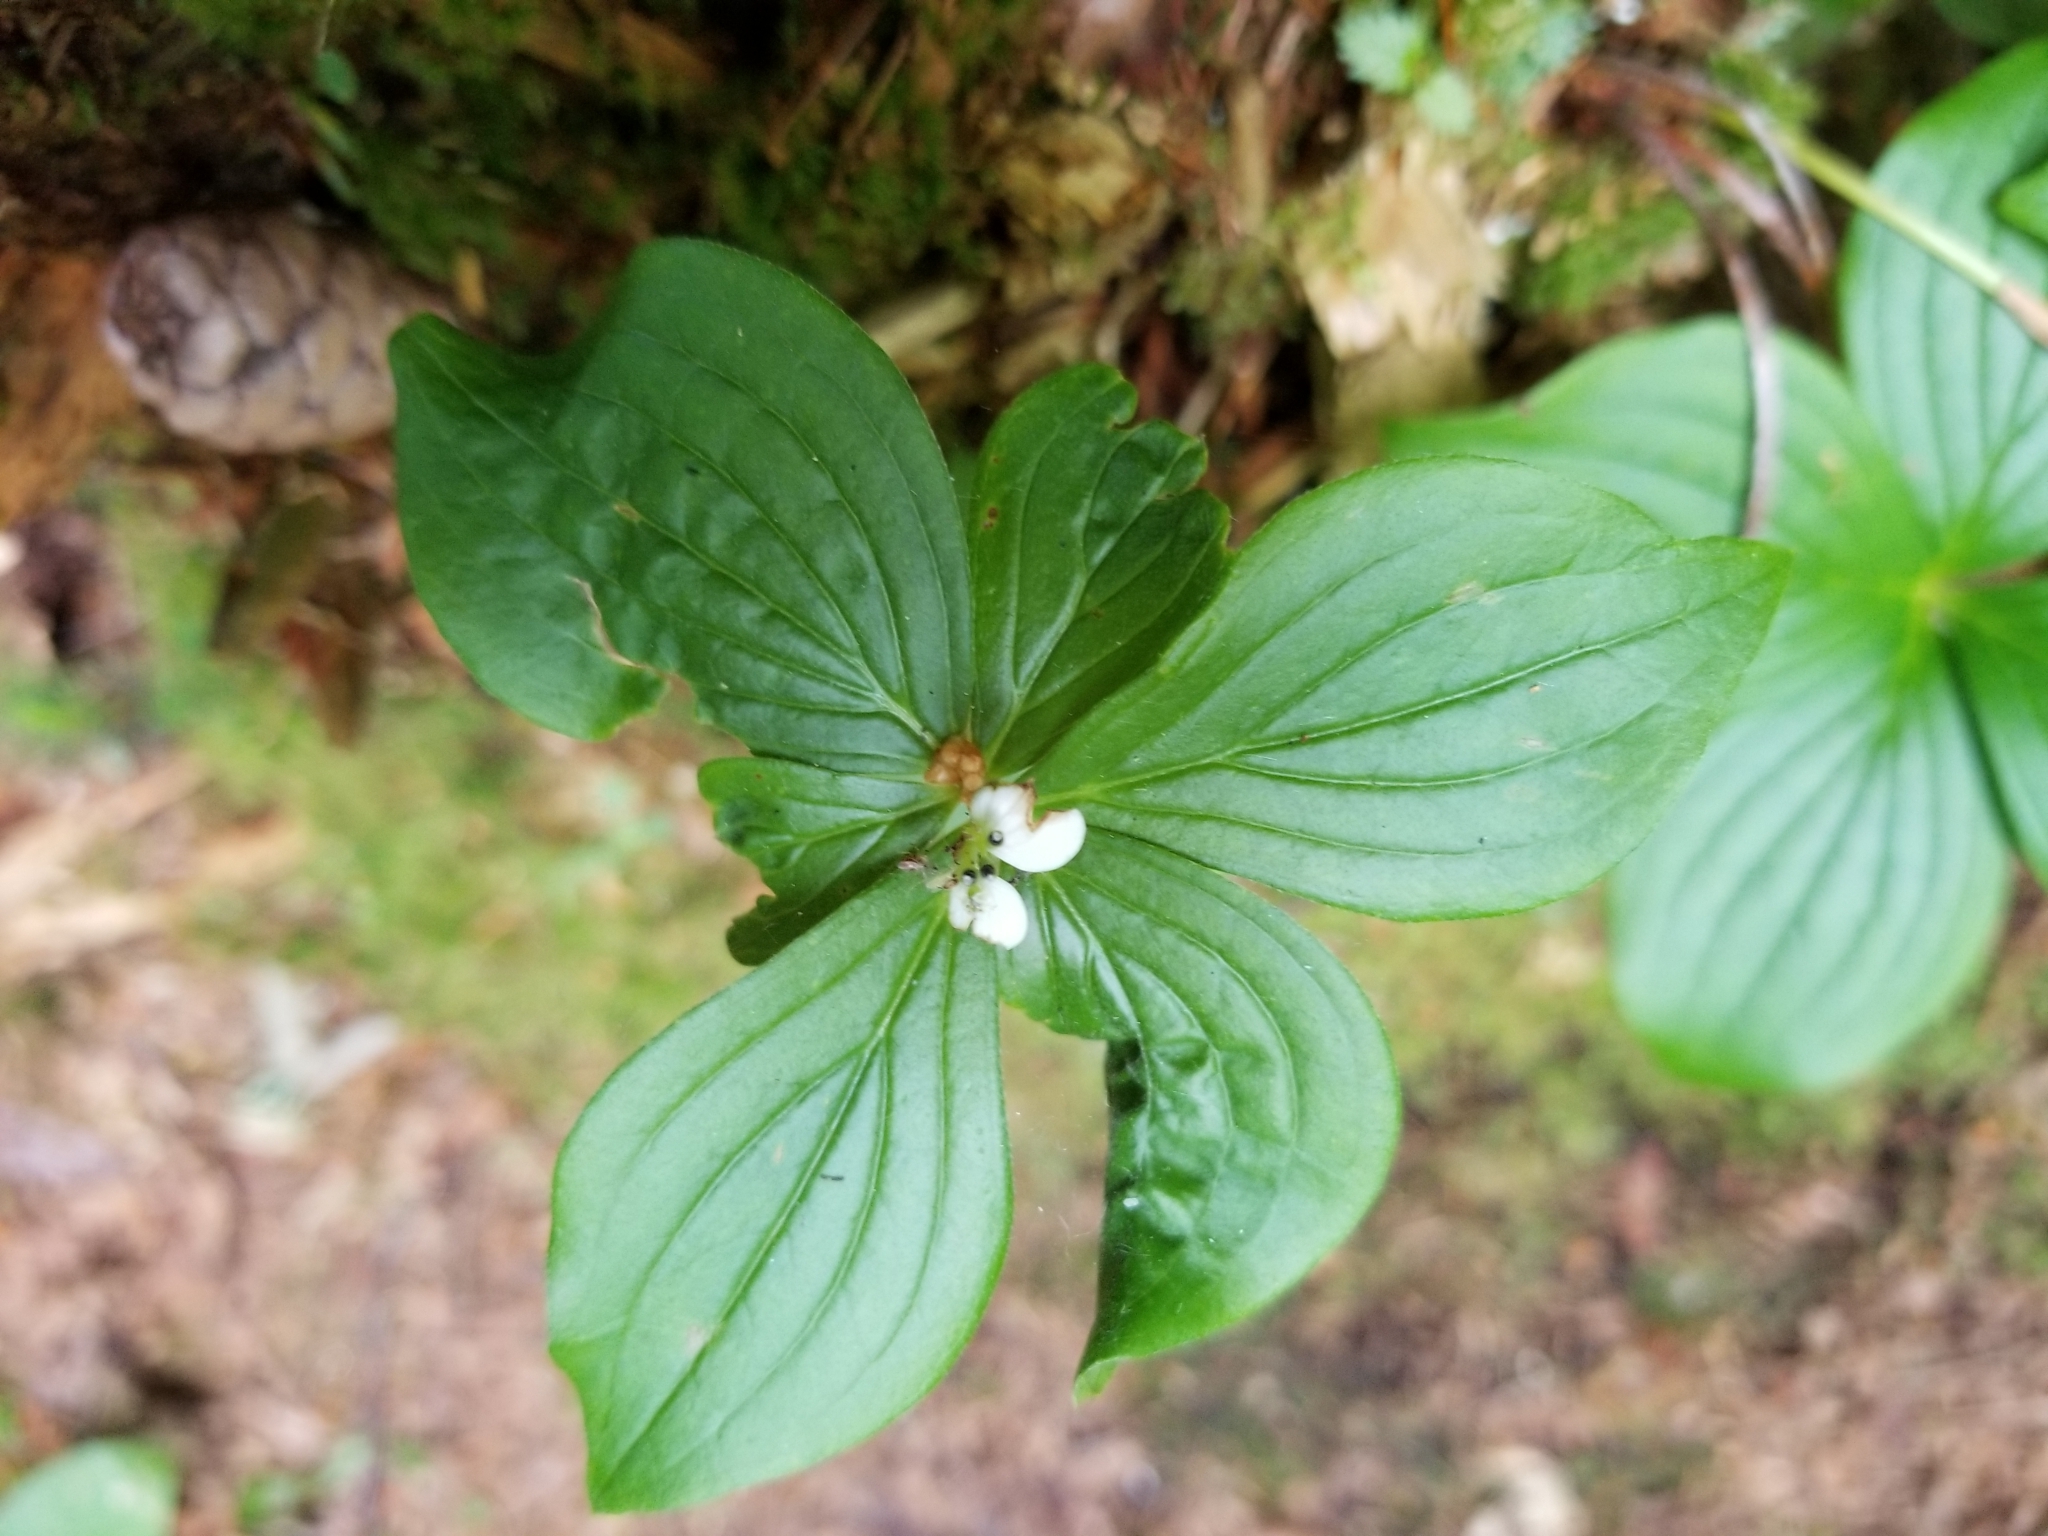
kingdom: Plantae
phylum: Tracheophyta
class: Magnoliopsida
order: Cornales
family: Cornaceae
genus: Cornus
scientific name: Cornus canadensis
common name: Creeping dogwood
